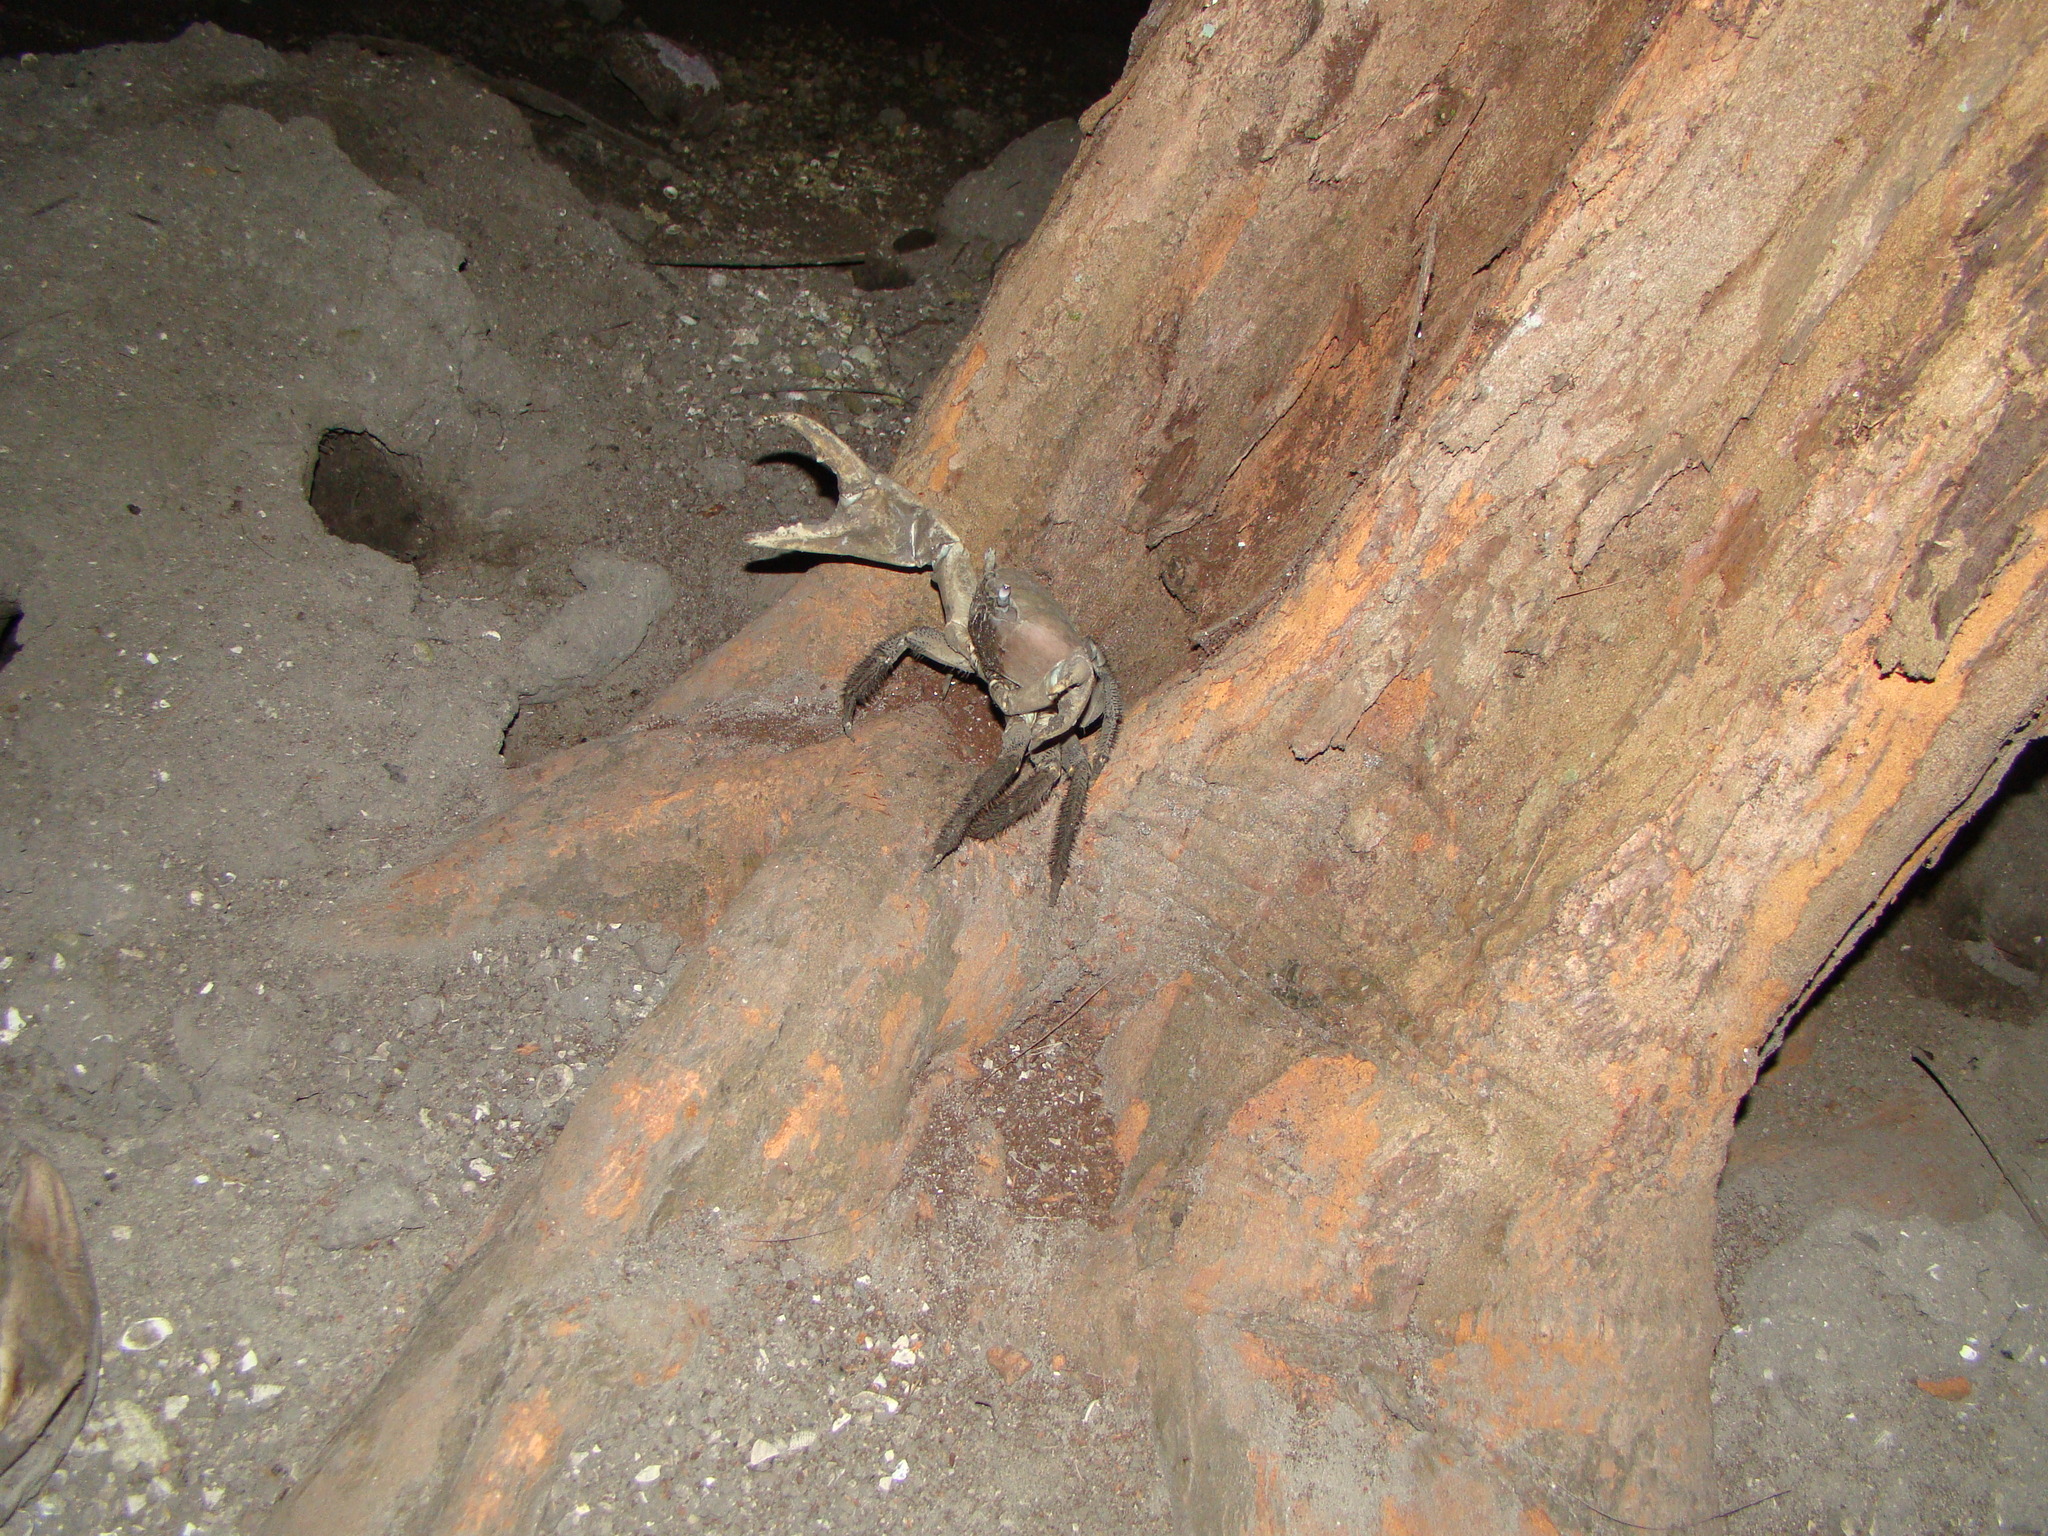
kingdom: Animalia
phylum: Arthropoda
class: Malacostraca
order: Decapoda
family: Gecarcinidae
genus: Cardisoma
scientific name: Cardisoma carnifex
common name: Brown land crab
